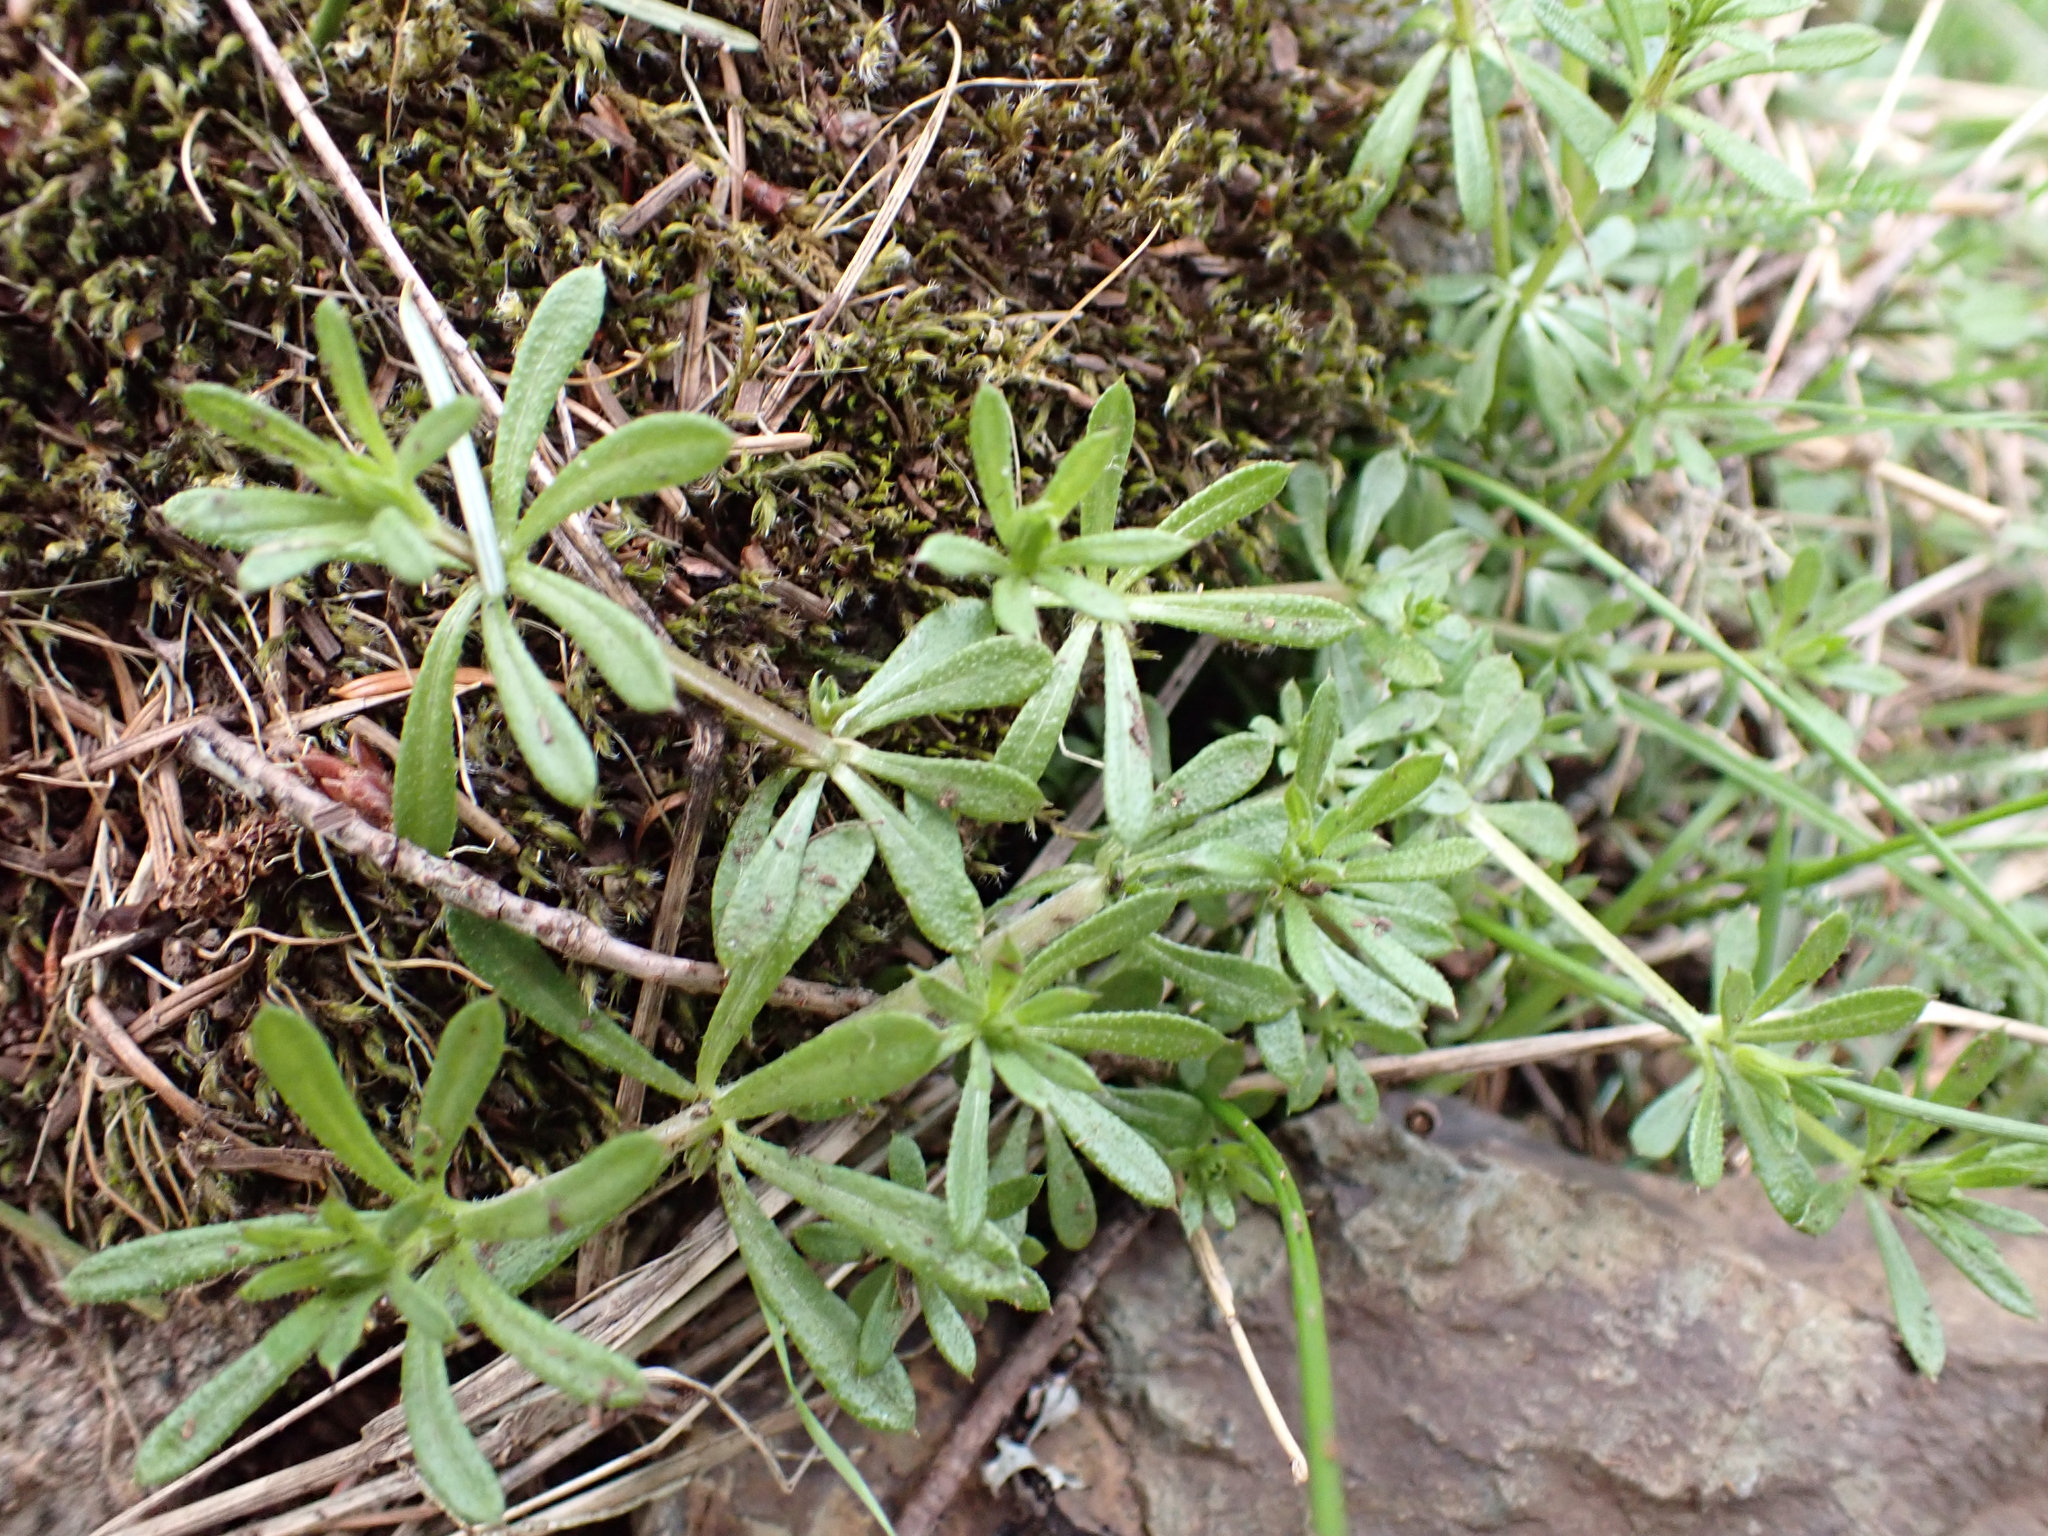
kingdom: Plantae
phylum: Tracheophyta
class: Magnoliopsida
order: Gentianales
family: Rubiaceae
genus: Galium
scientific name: Galium aparine
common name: Cleavers
